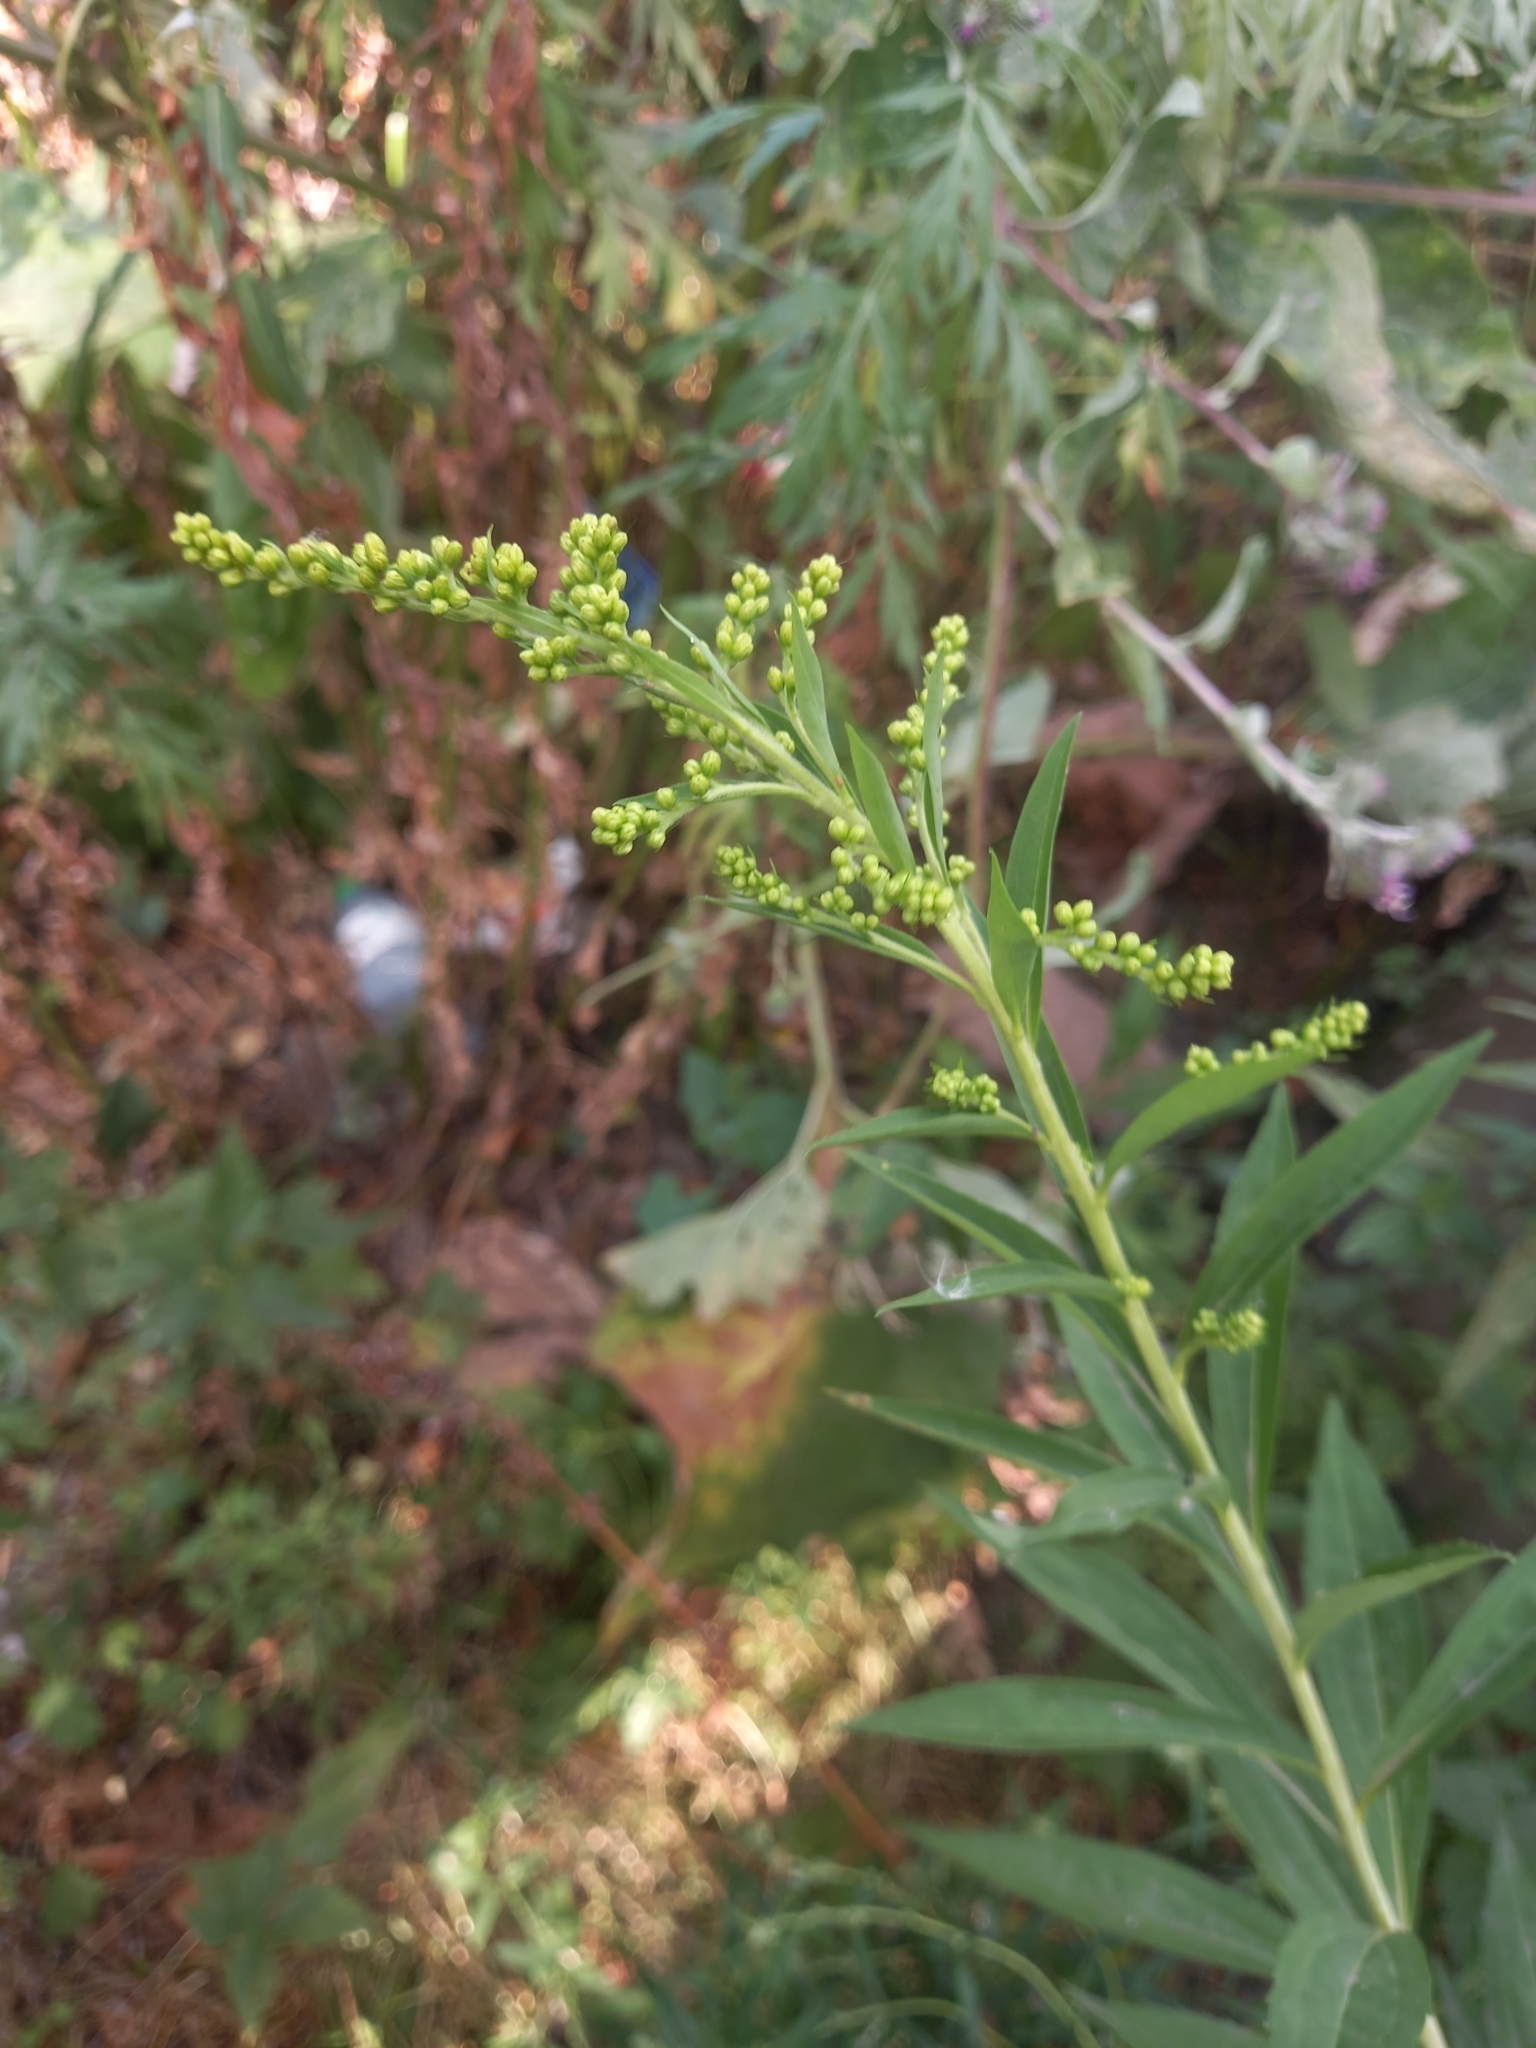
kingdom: Plantae
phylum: Tracheophyta
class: Magnoliopsida
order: Asterales
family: Asteraceae
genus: Solidago
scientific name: Solidago gigantea
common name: Giant goldenrod
